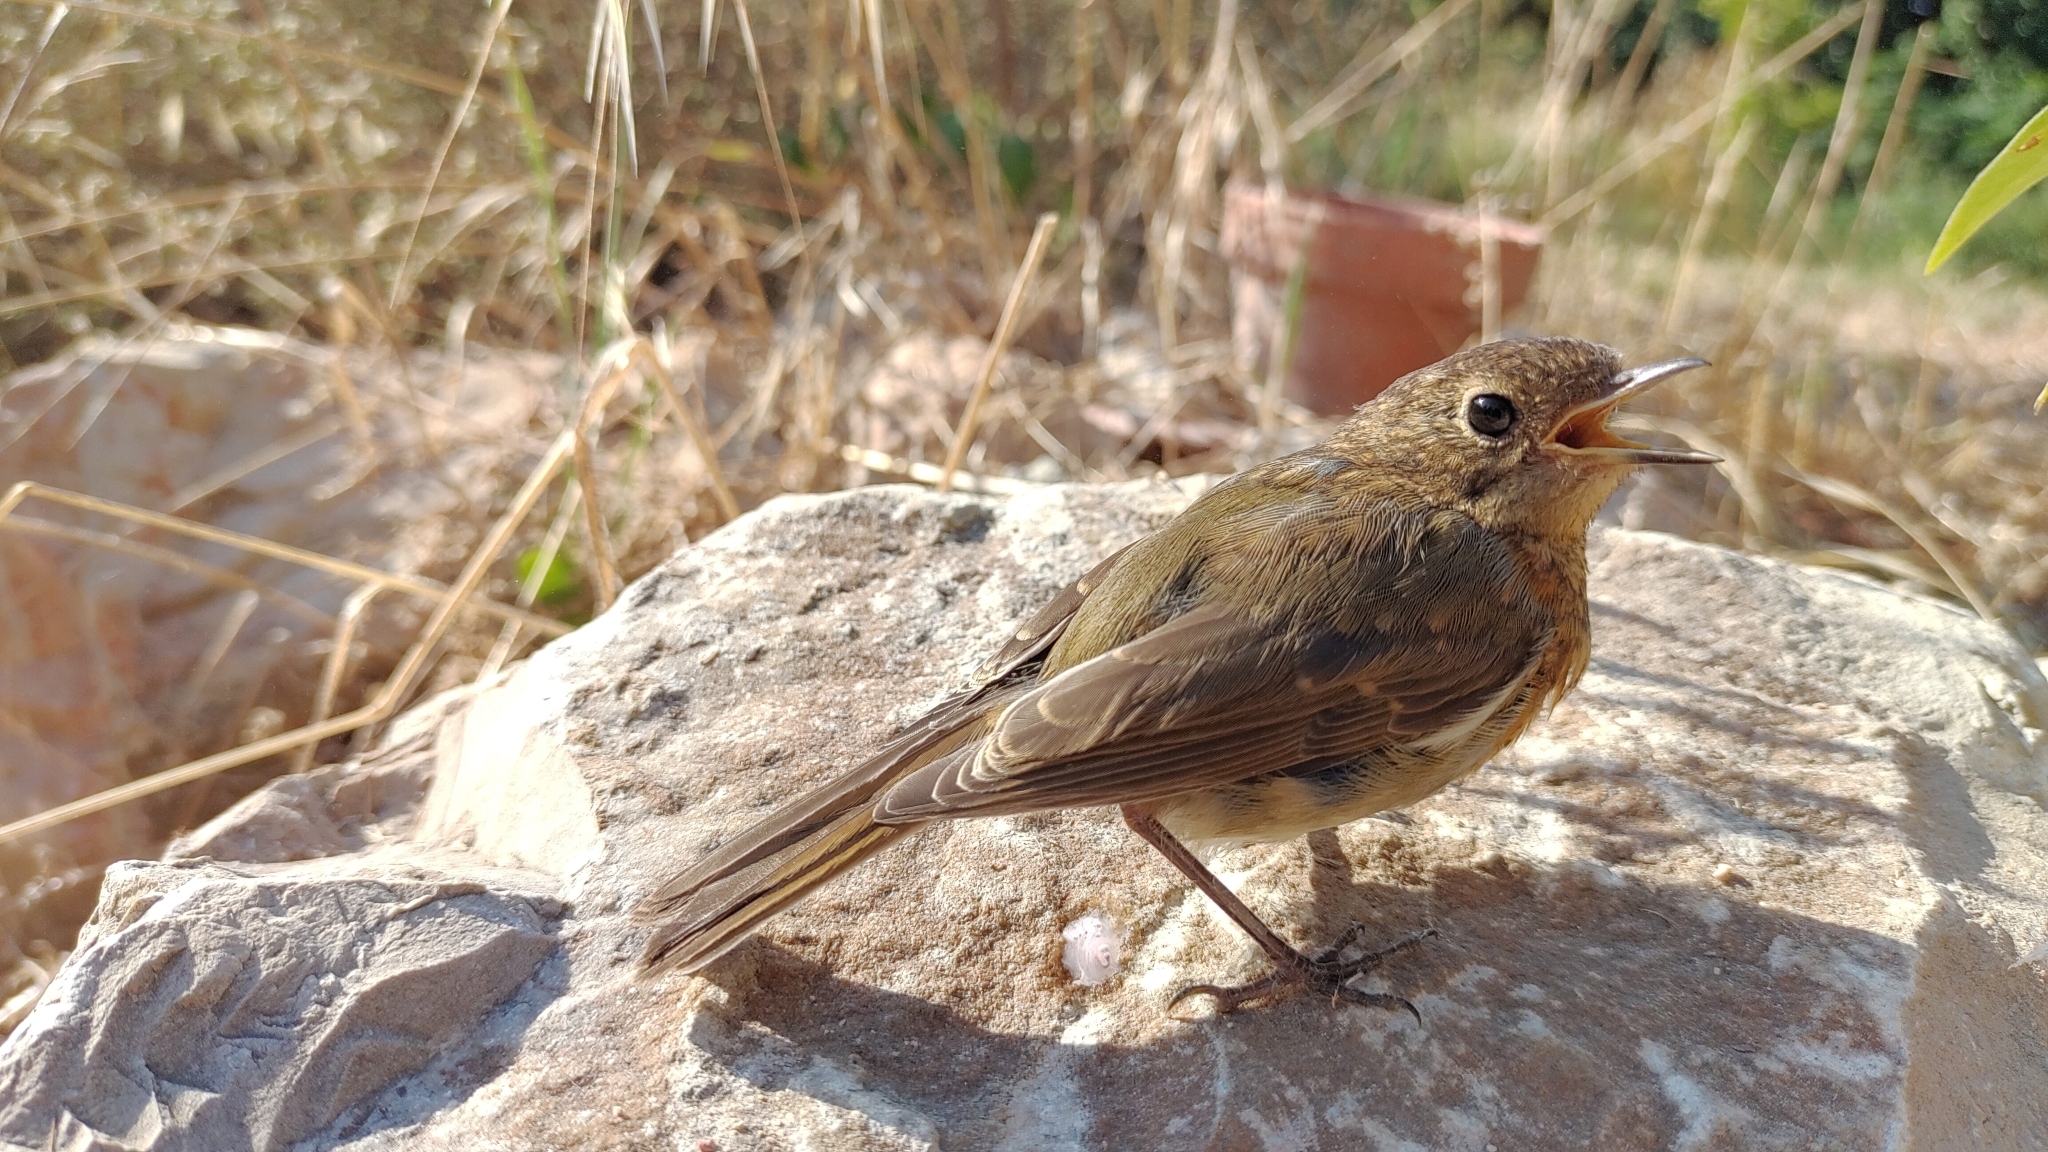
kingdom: Animalia
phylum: Chordata
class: Aves
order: Passeriformes
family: Muscicapidae
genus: Erithacus
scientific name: Erithacus rubecula
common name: European robin
